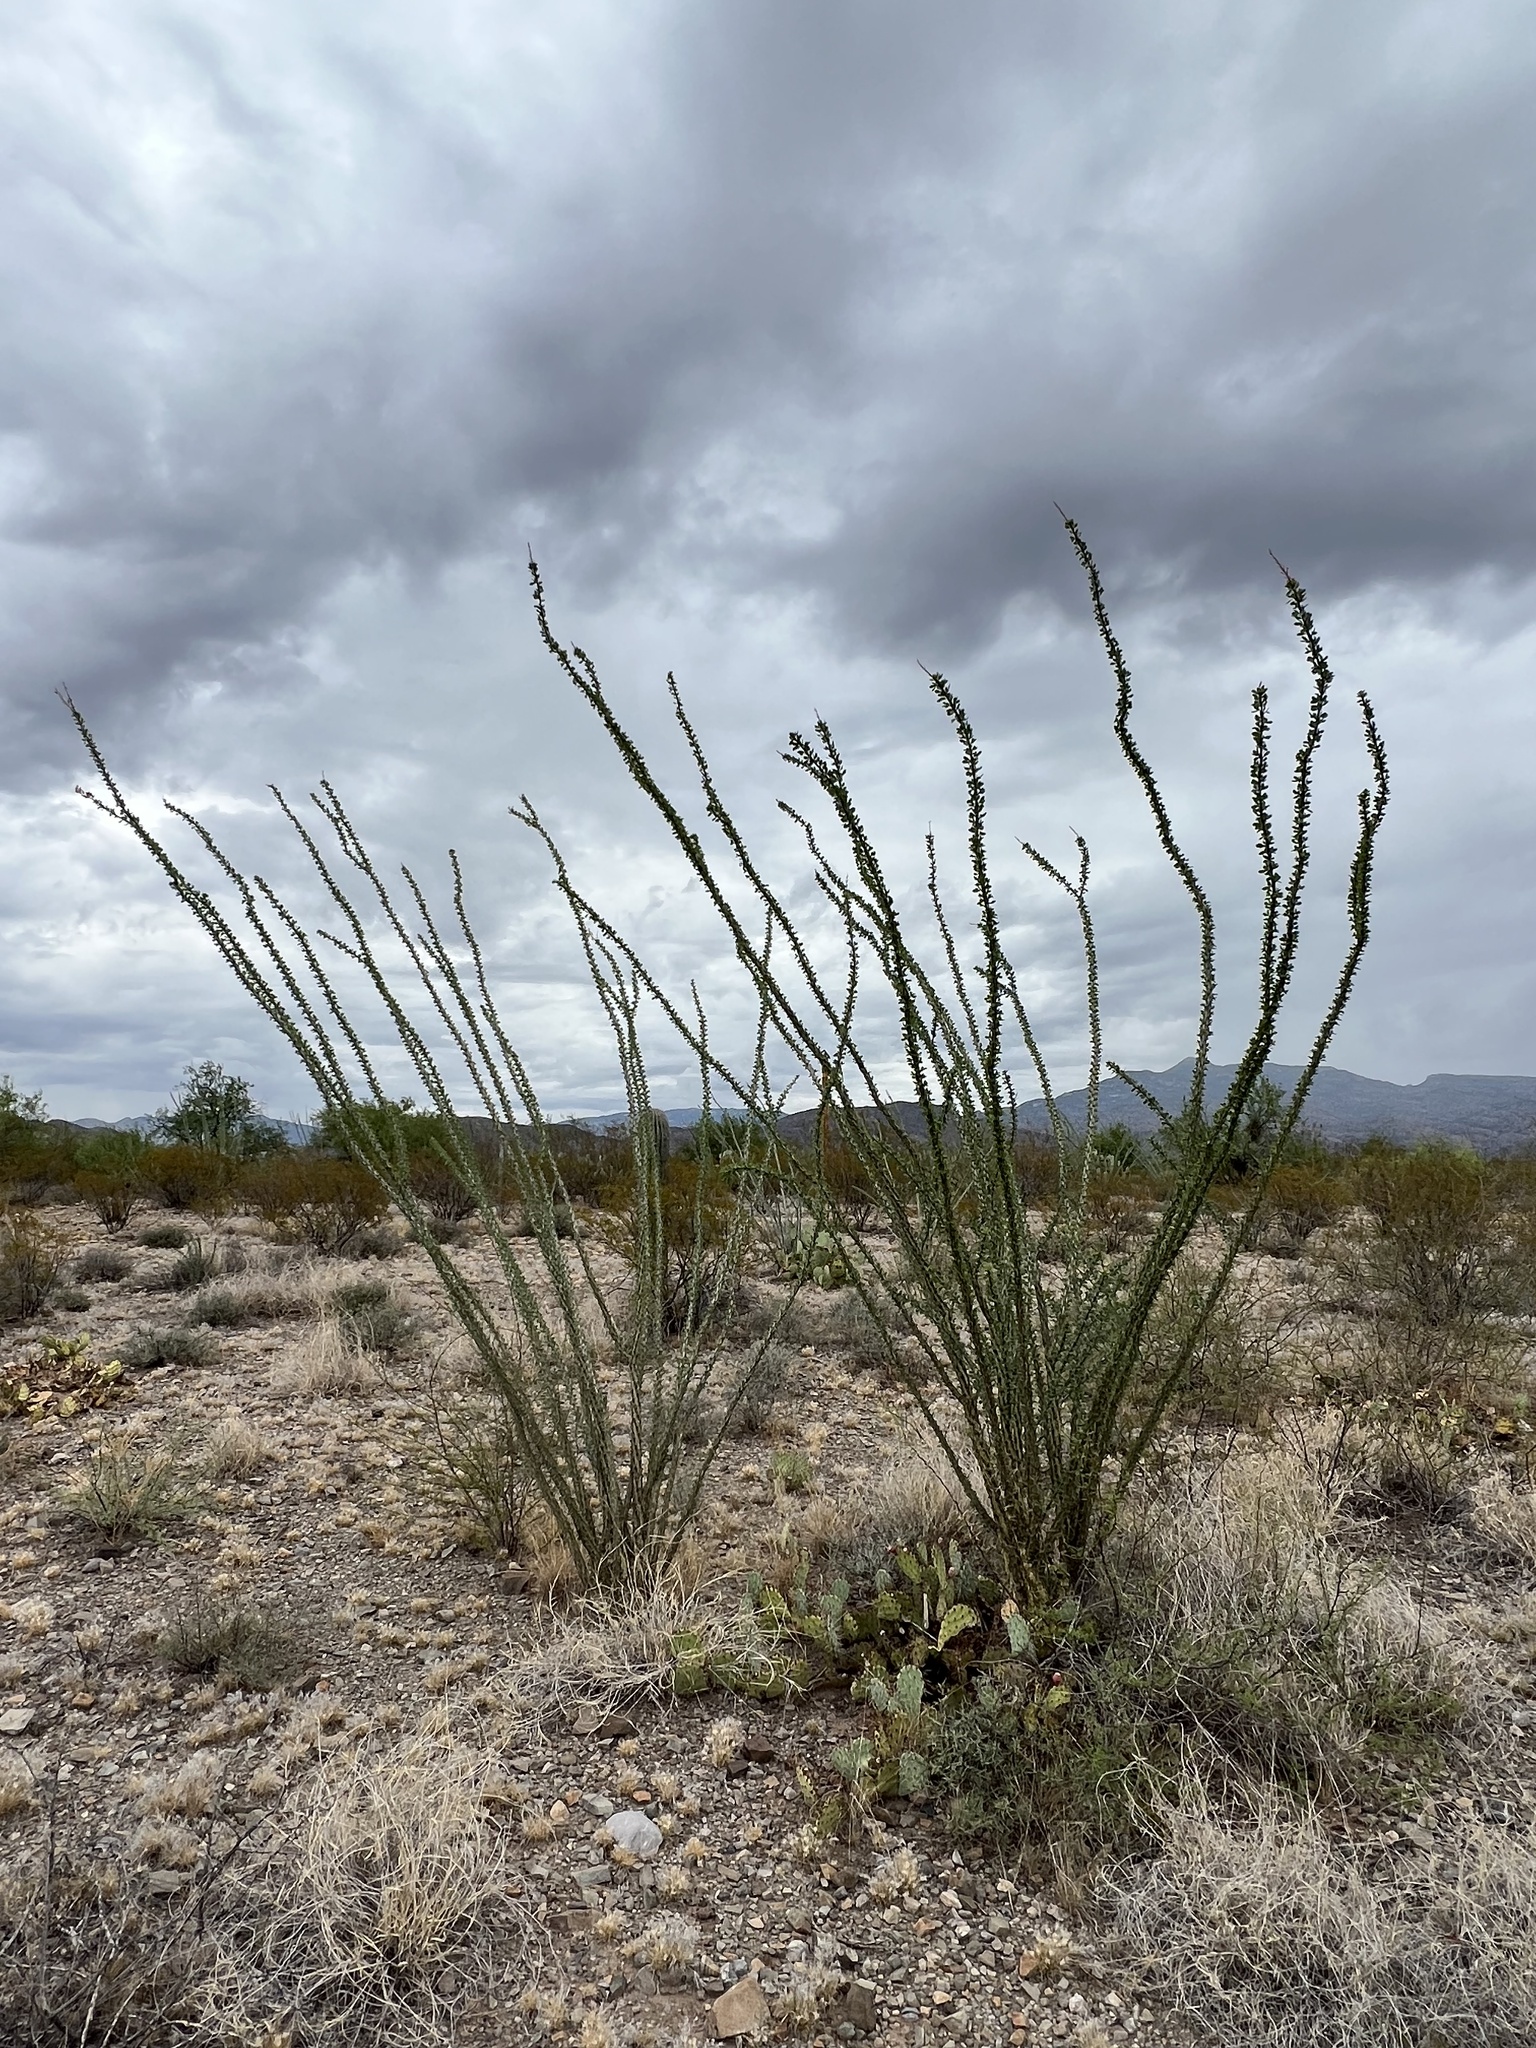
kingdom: Plantae
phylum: Tracheophyta
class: Magnoliopsida
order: Ericales
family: Fouquieriaceae
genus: Fouquieria
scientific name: Fouquieria splendens
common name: Vine-cactus
